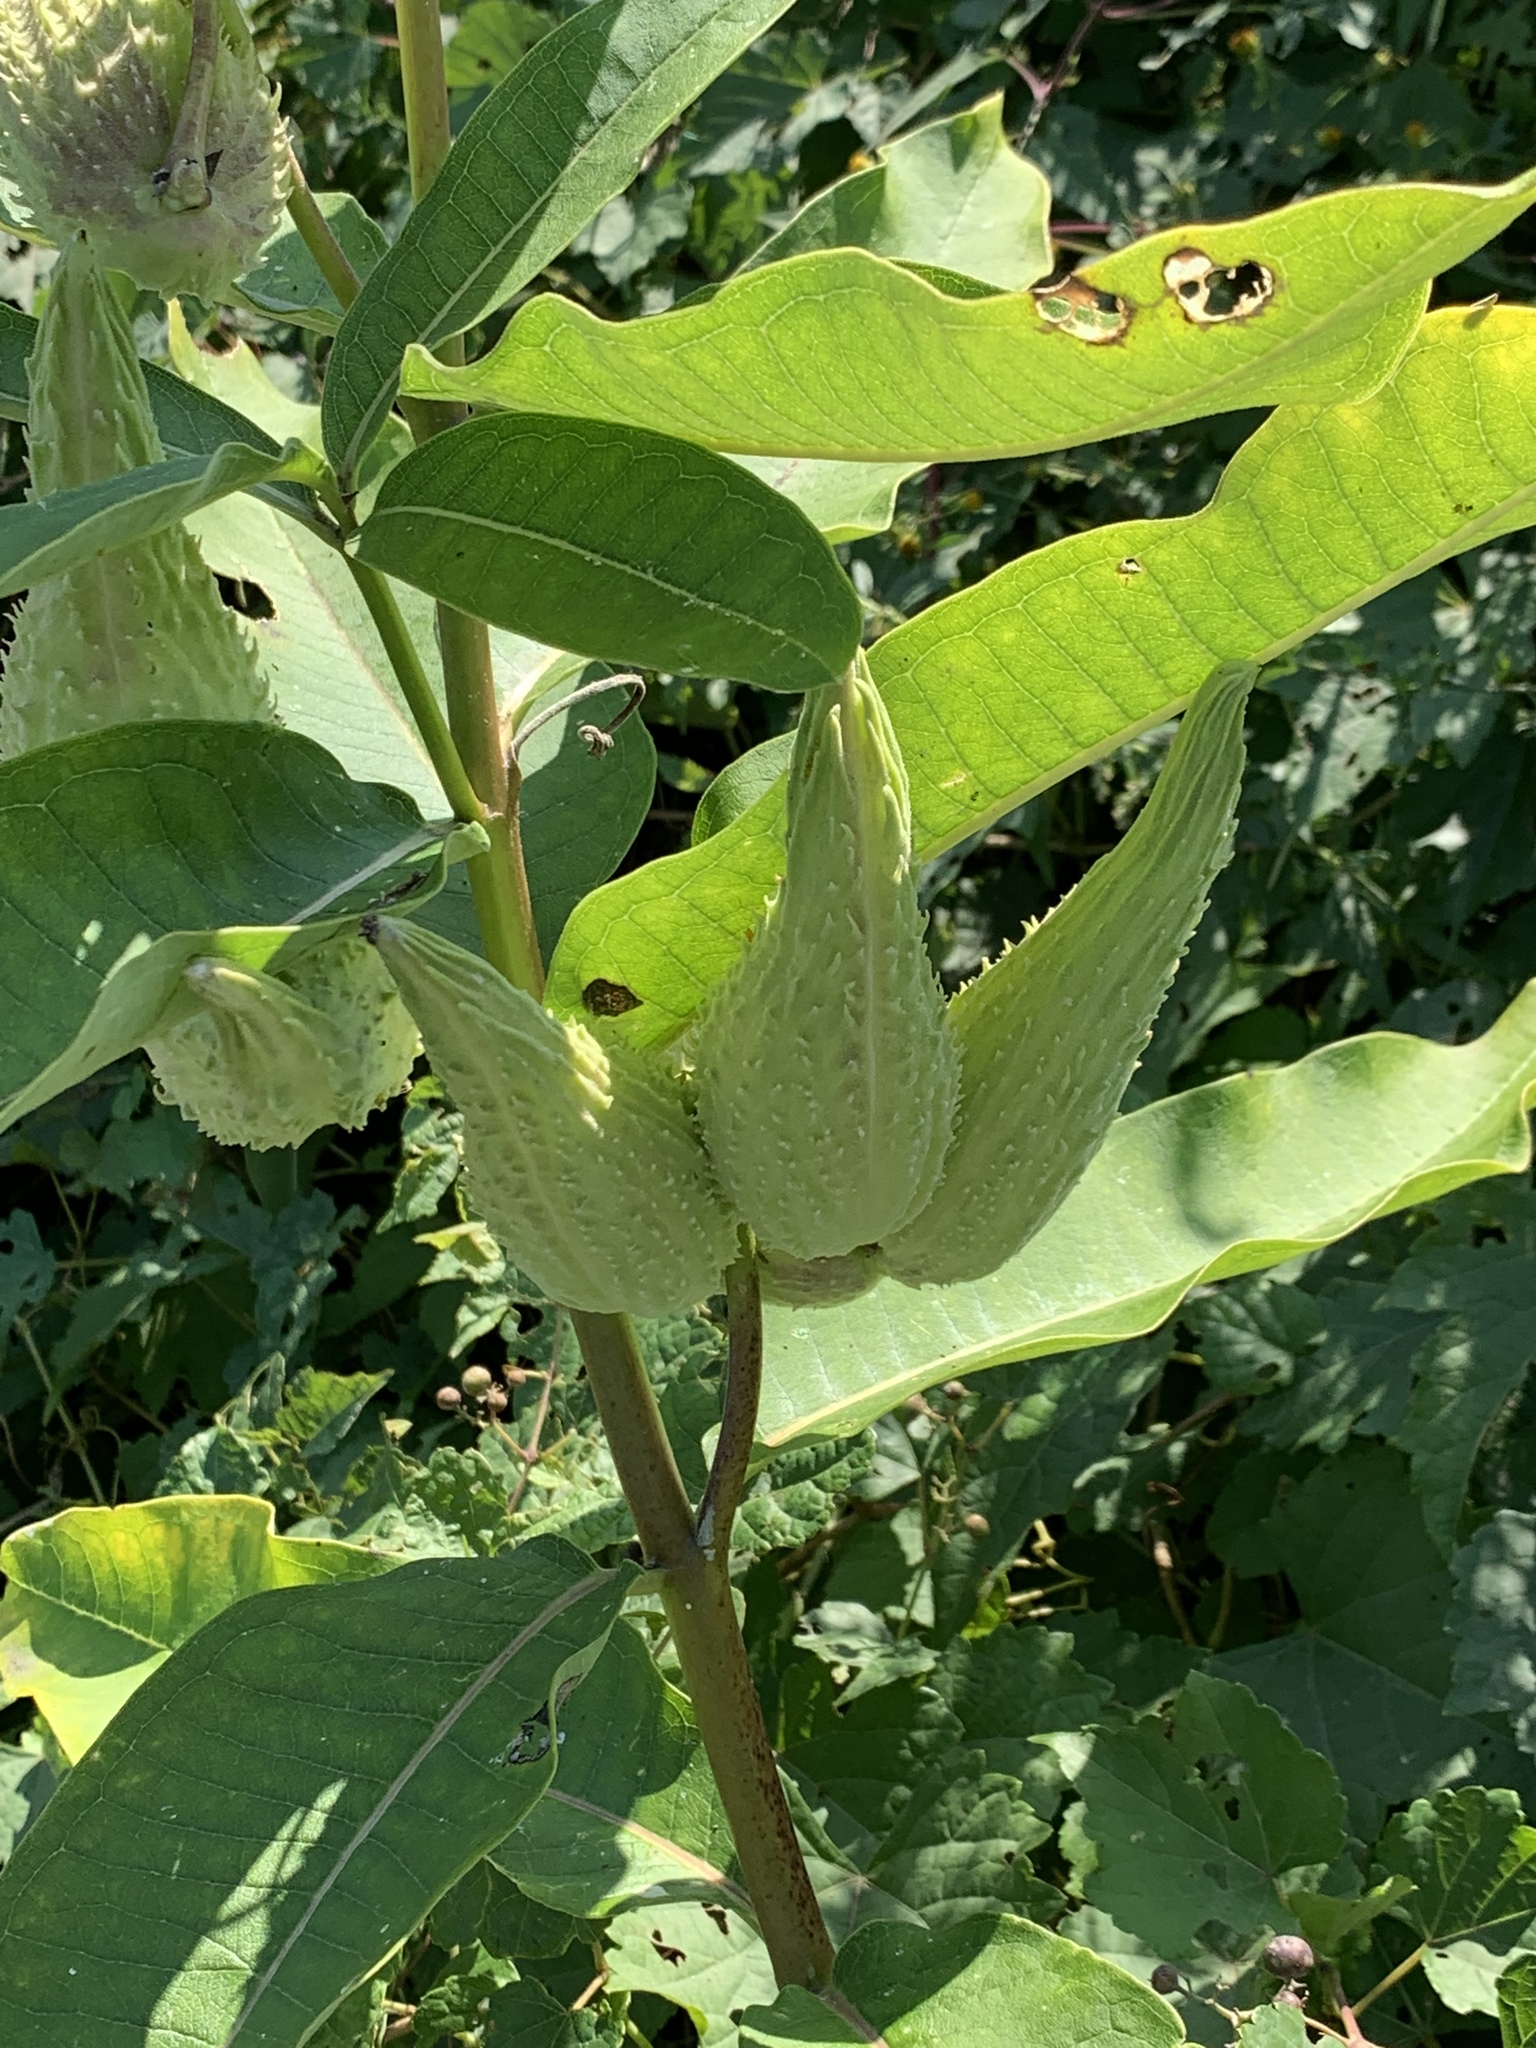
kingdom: Plantae
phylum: Tracheophyta
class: Magnoliopsida
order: Gentianales
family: Apocynaceae
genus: Asclepias
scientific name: Asclepias syriaca
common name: Common milkweed
